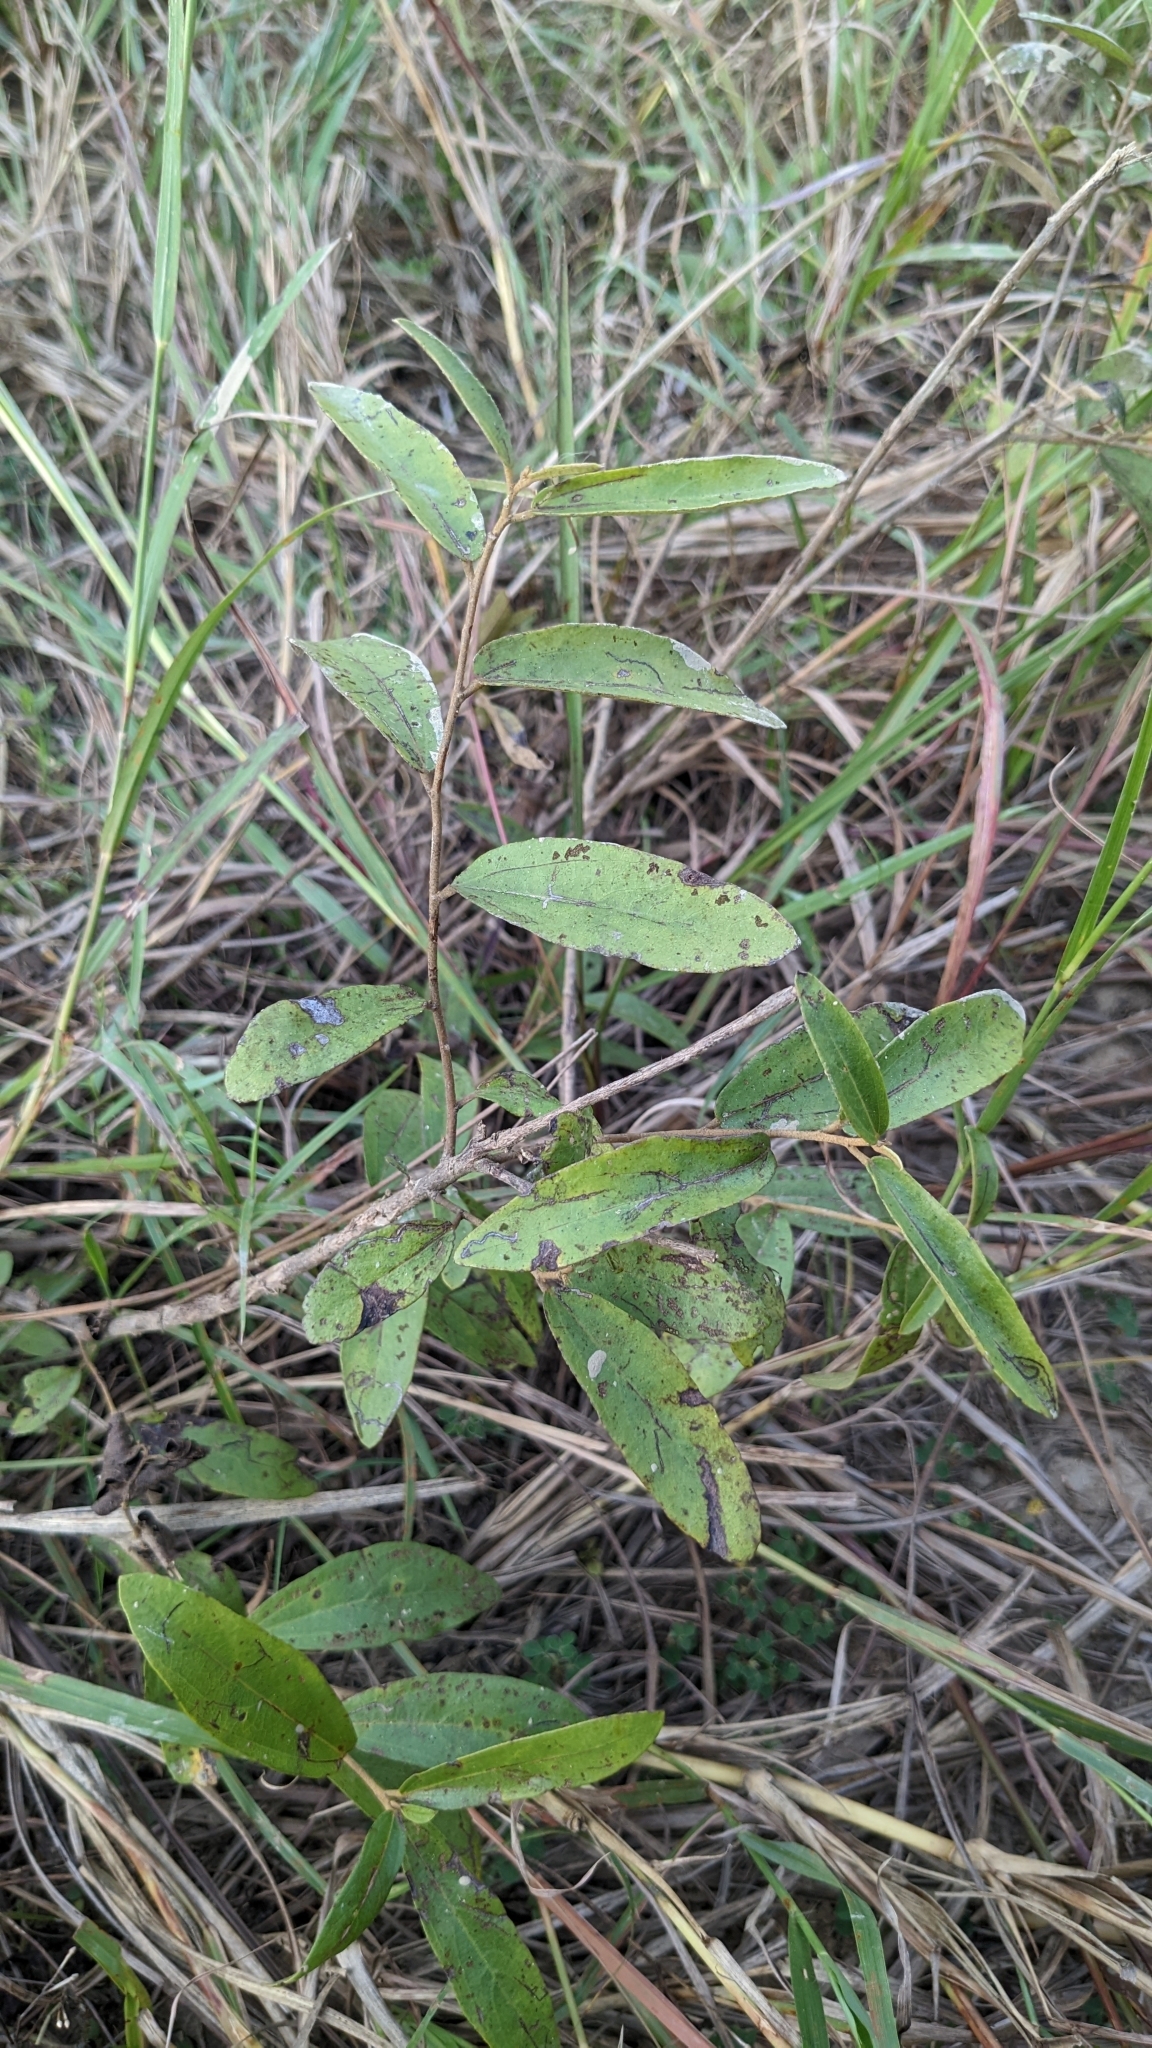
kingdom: Plantae
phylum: Tracheophyta
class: Magnoliopsida
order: Malvales
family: Malvaceae
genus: Helicteres
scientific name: Helicteres angustifolia
